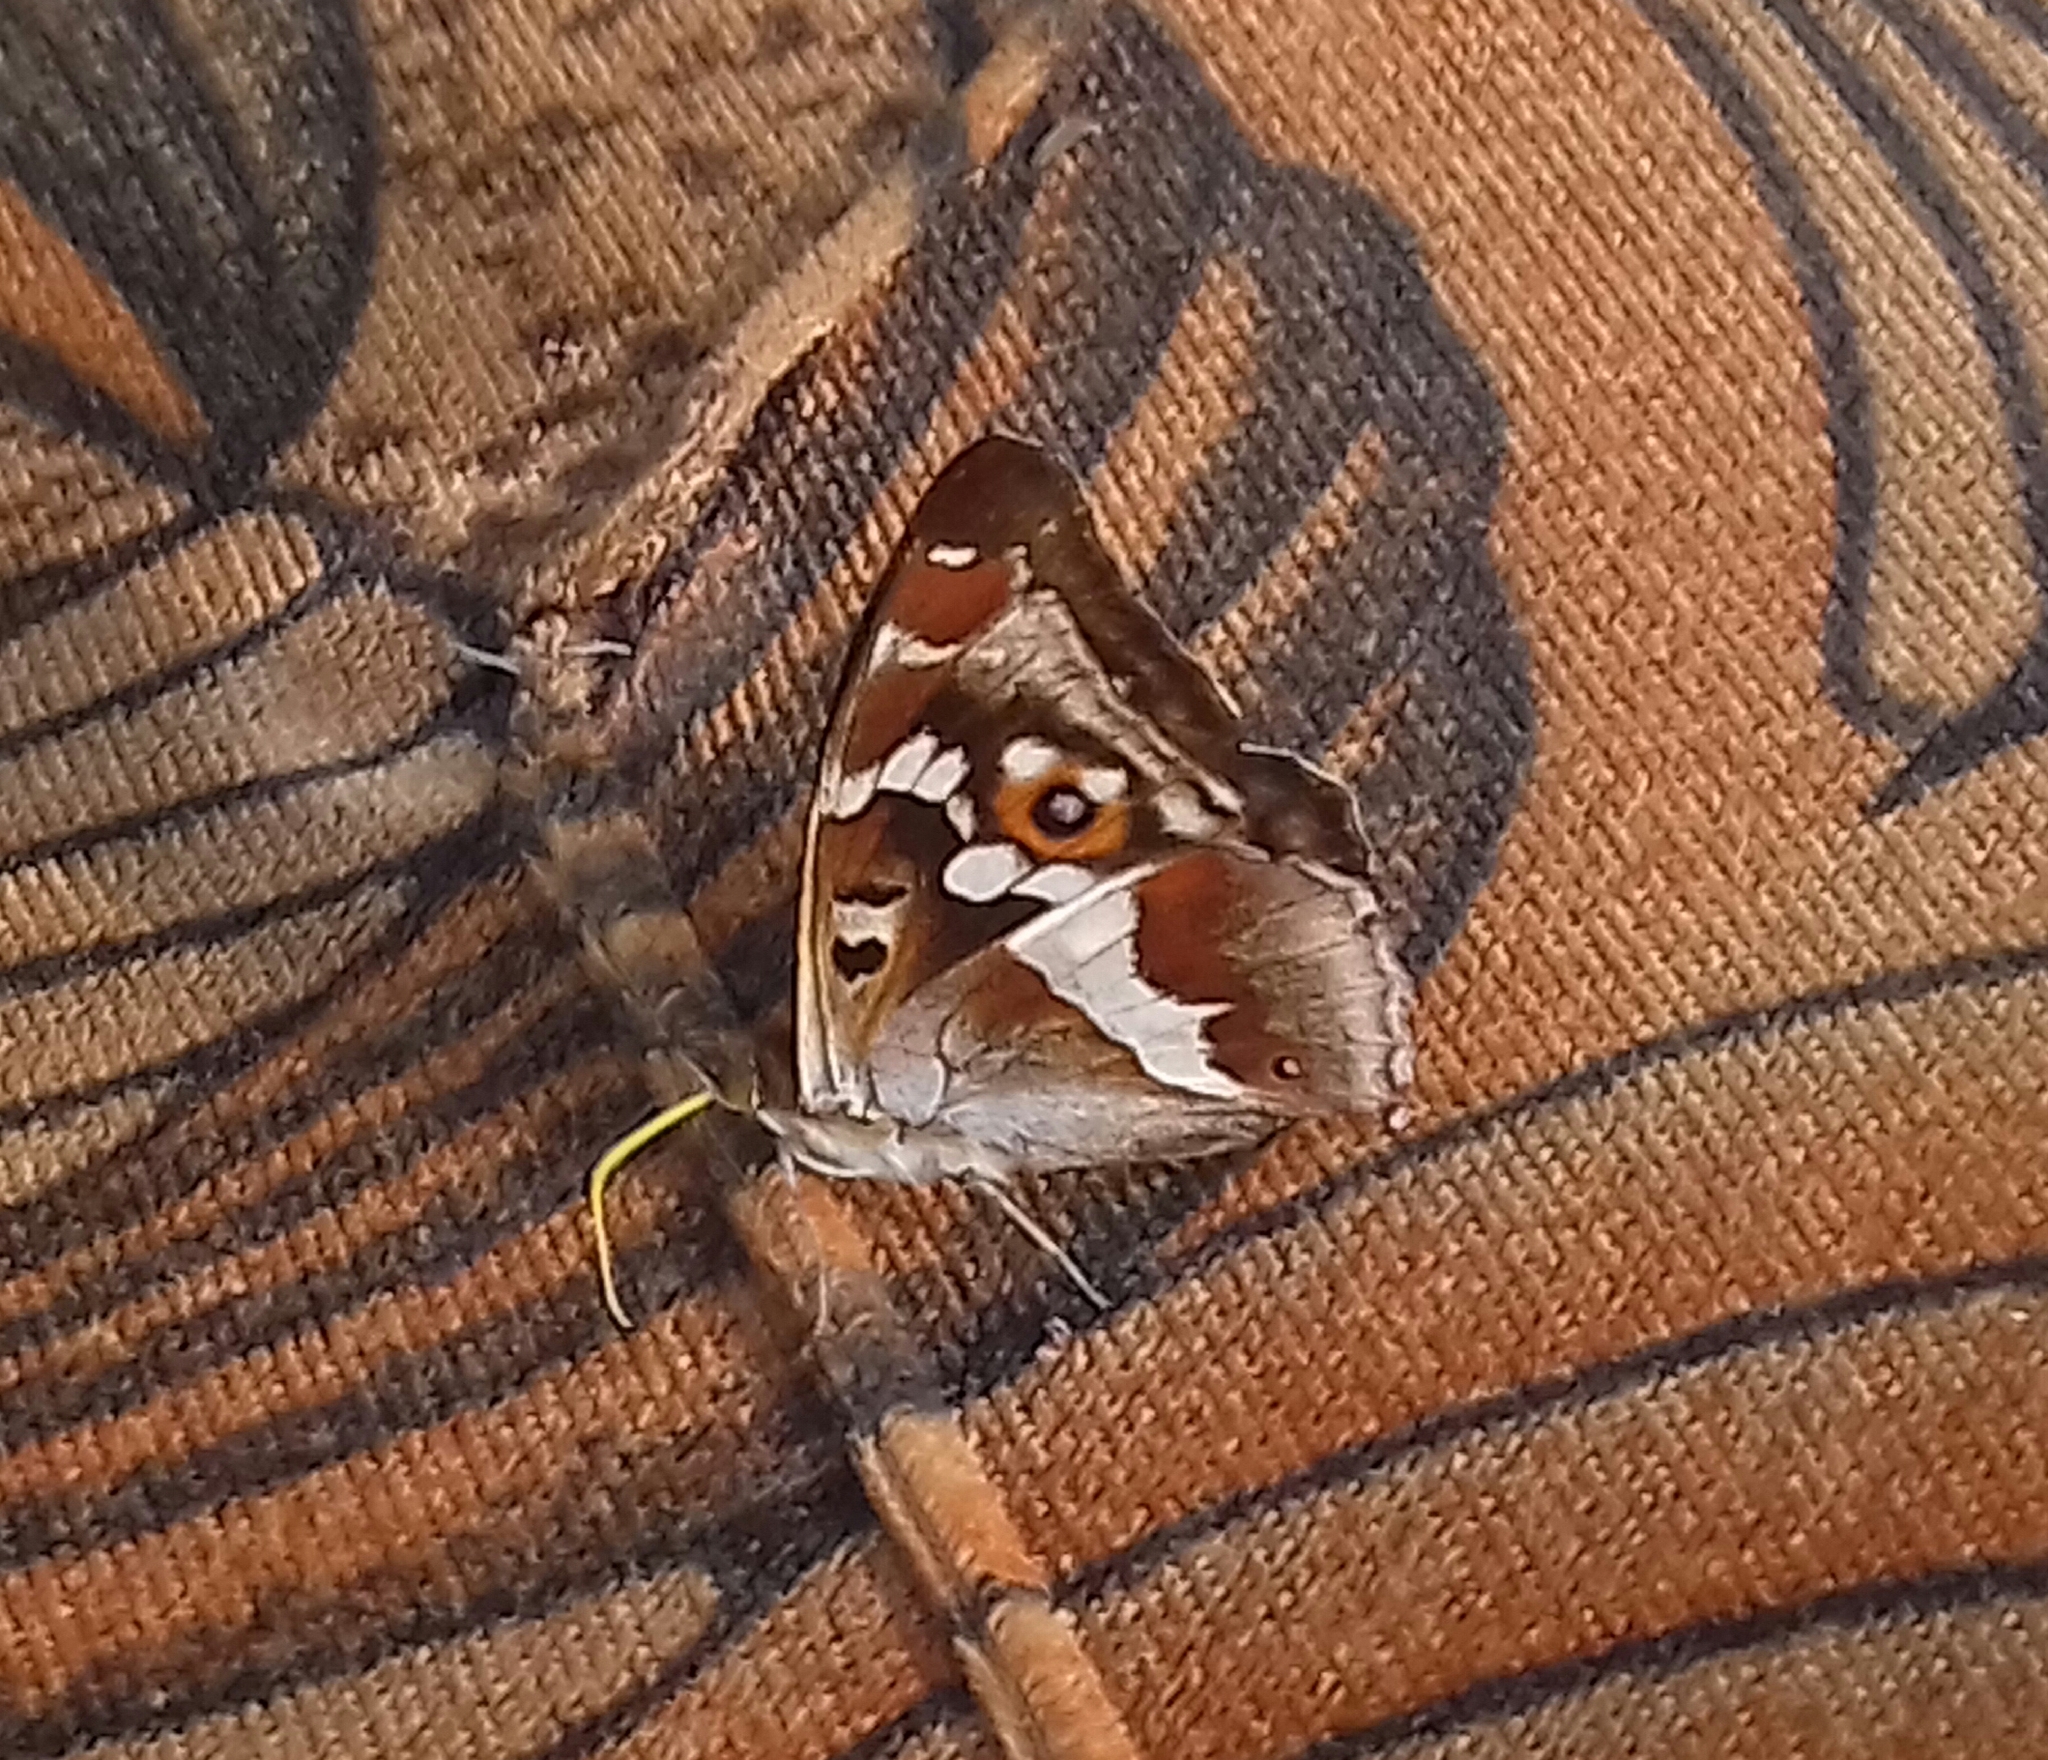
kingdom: Animalia
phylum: Arthropoda
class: Insecta
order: Lepidoptera
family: Nymphalidae
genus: Apatura
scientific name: Apatura iris
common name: Purple emperor
